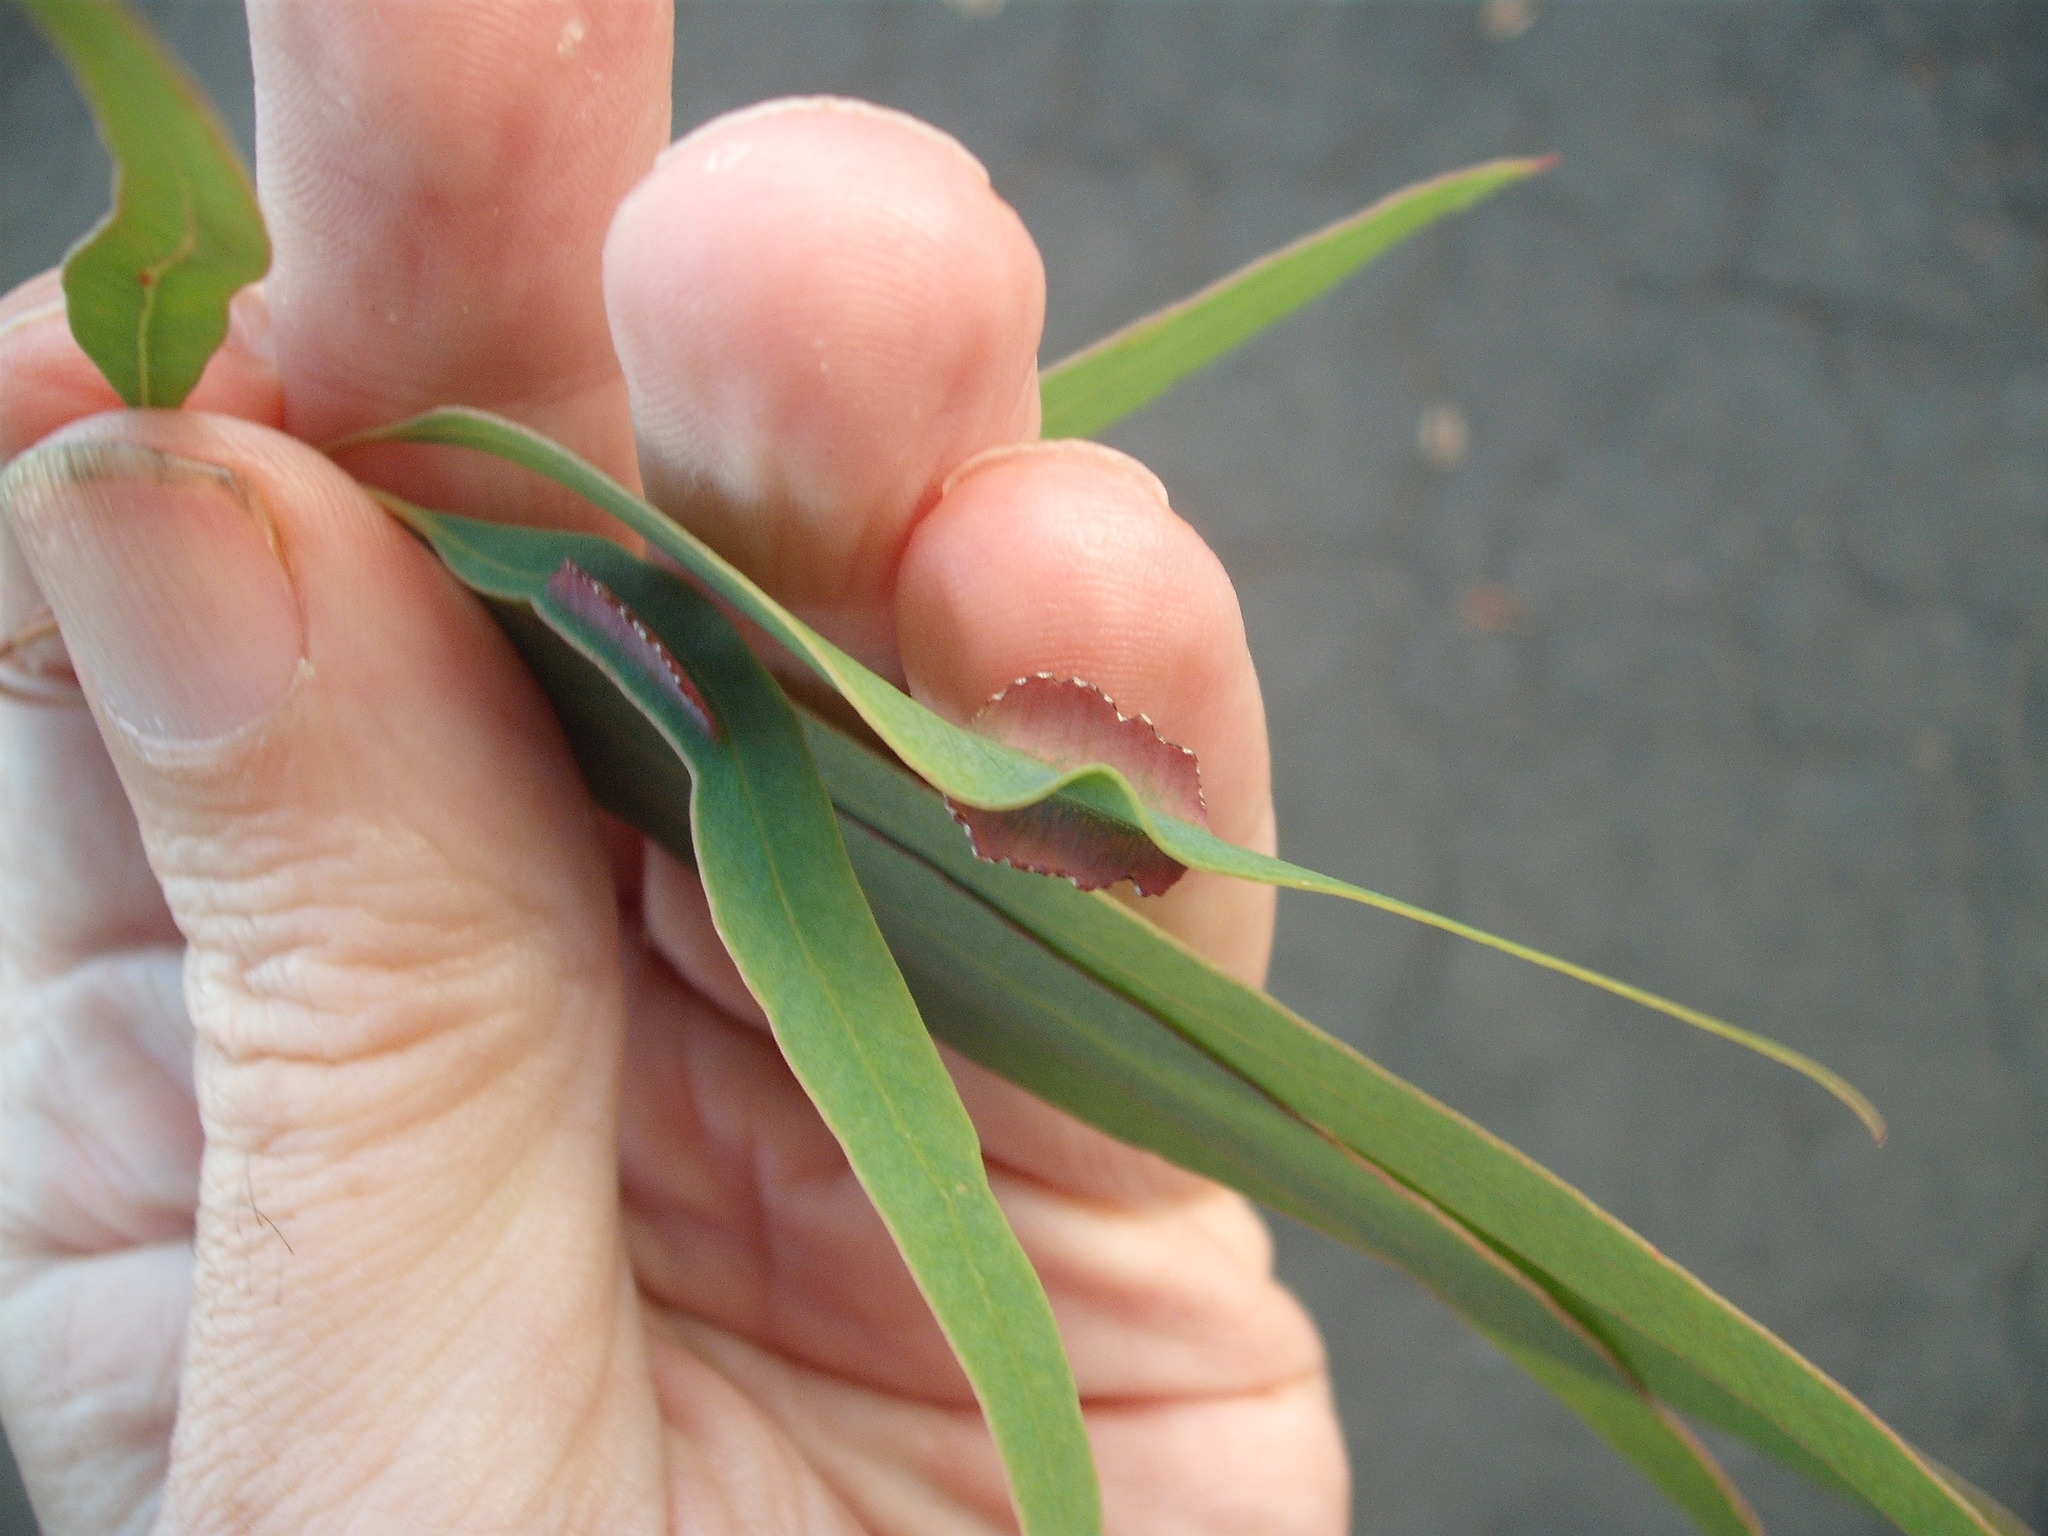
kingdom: Animalia
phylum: Arthropoda
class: Insecta
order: Hymenoptera
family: Pteromalidae
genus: Nambouria
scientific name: Nambouria xanthops
